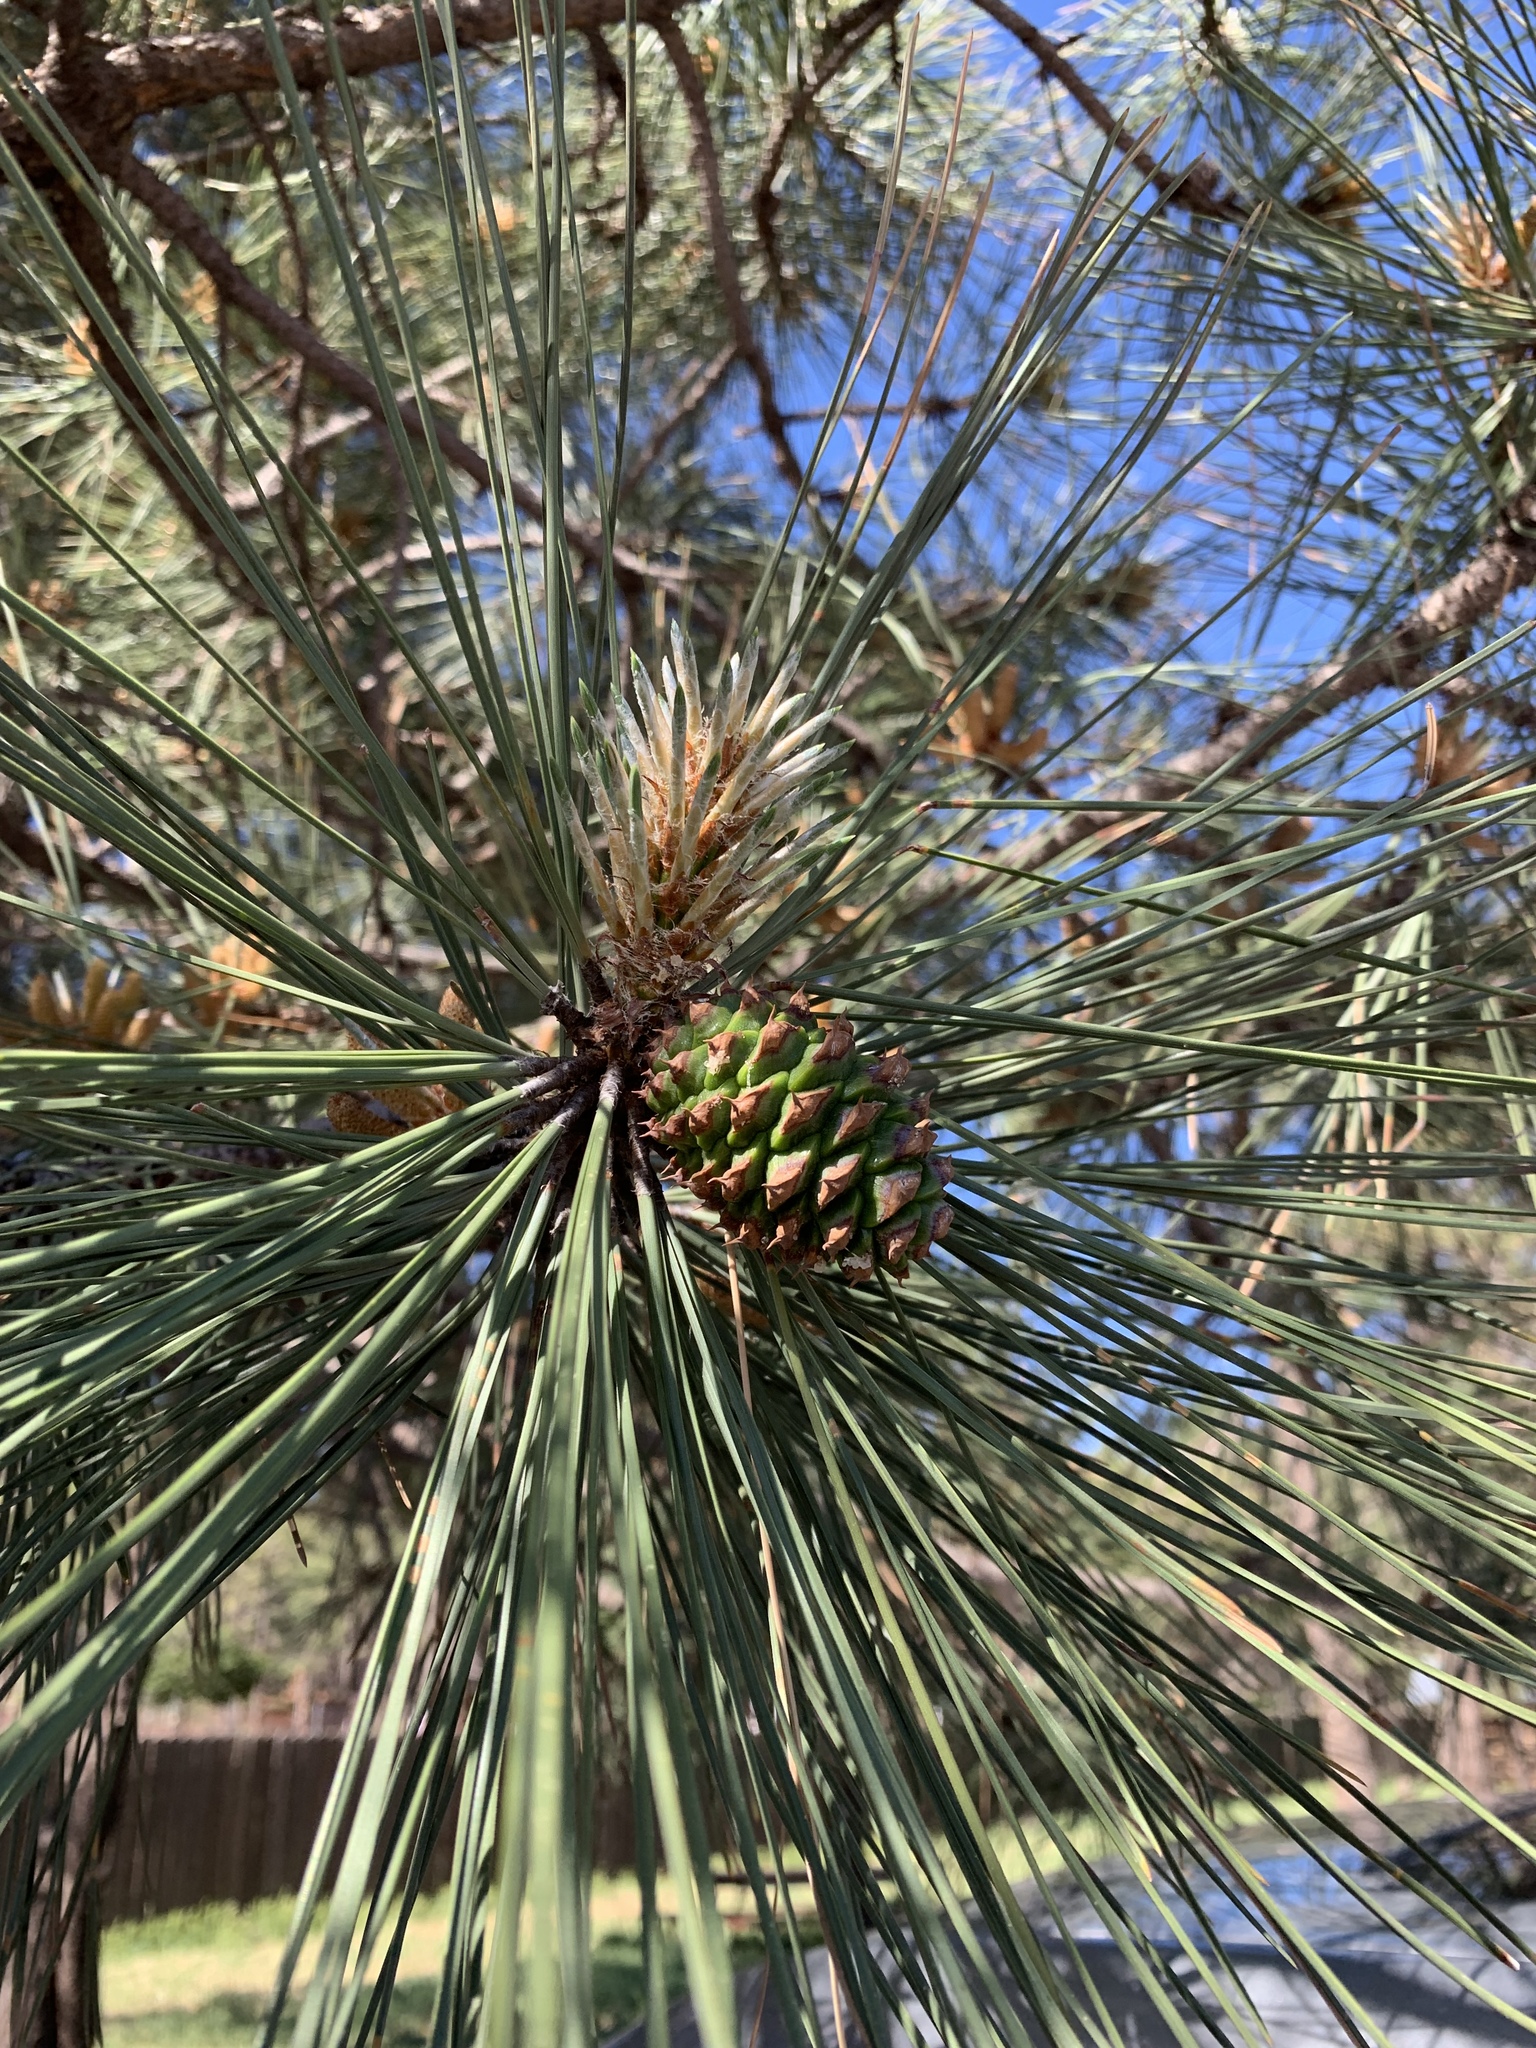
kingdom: Plantae
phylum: Tracheophyta
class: Pinopsida
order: Pinales
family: Pinaceae
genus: Pinus
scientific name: Pinus ponderosa
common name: Western yellow-pine
